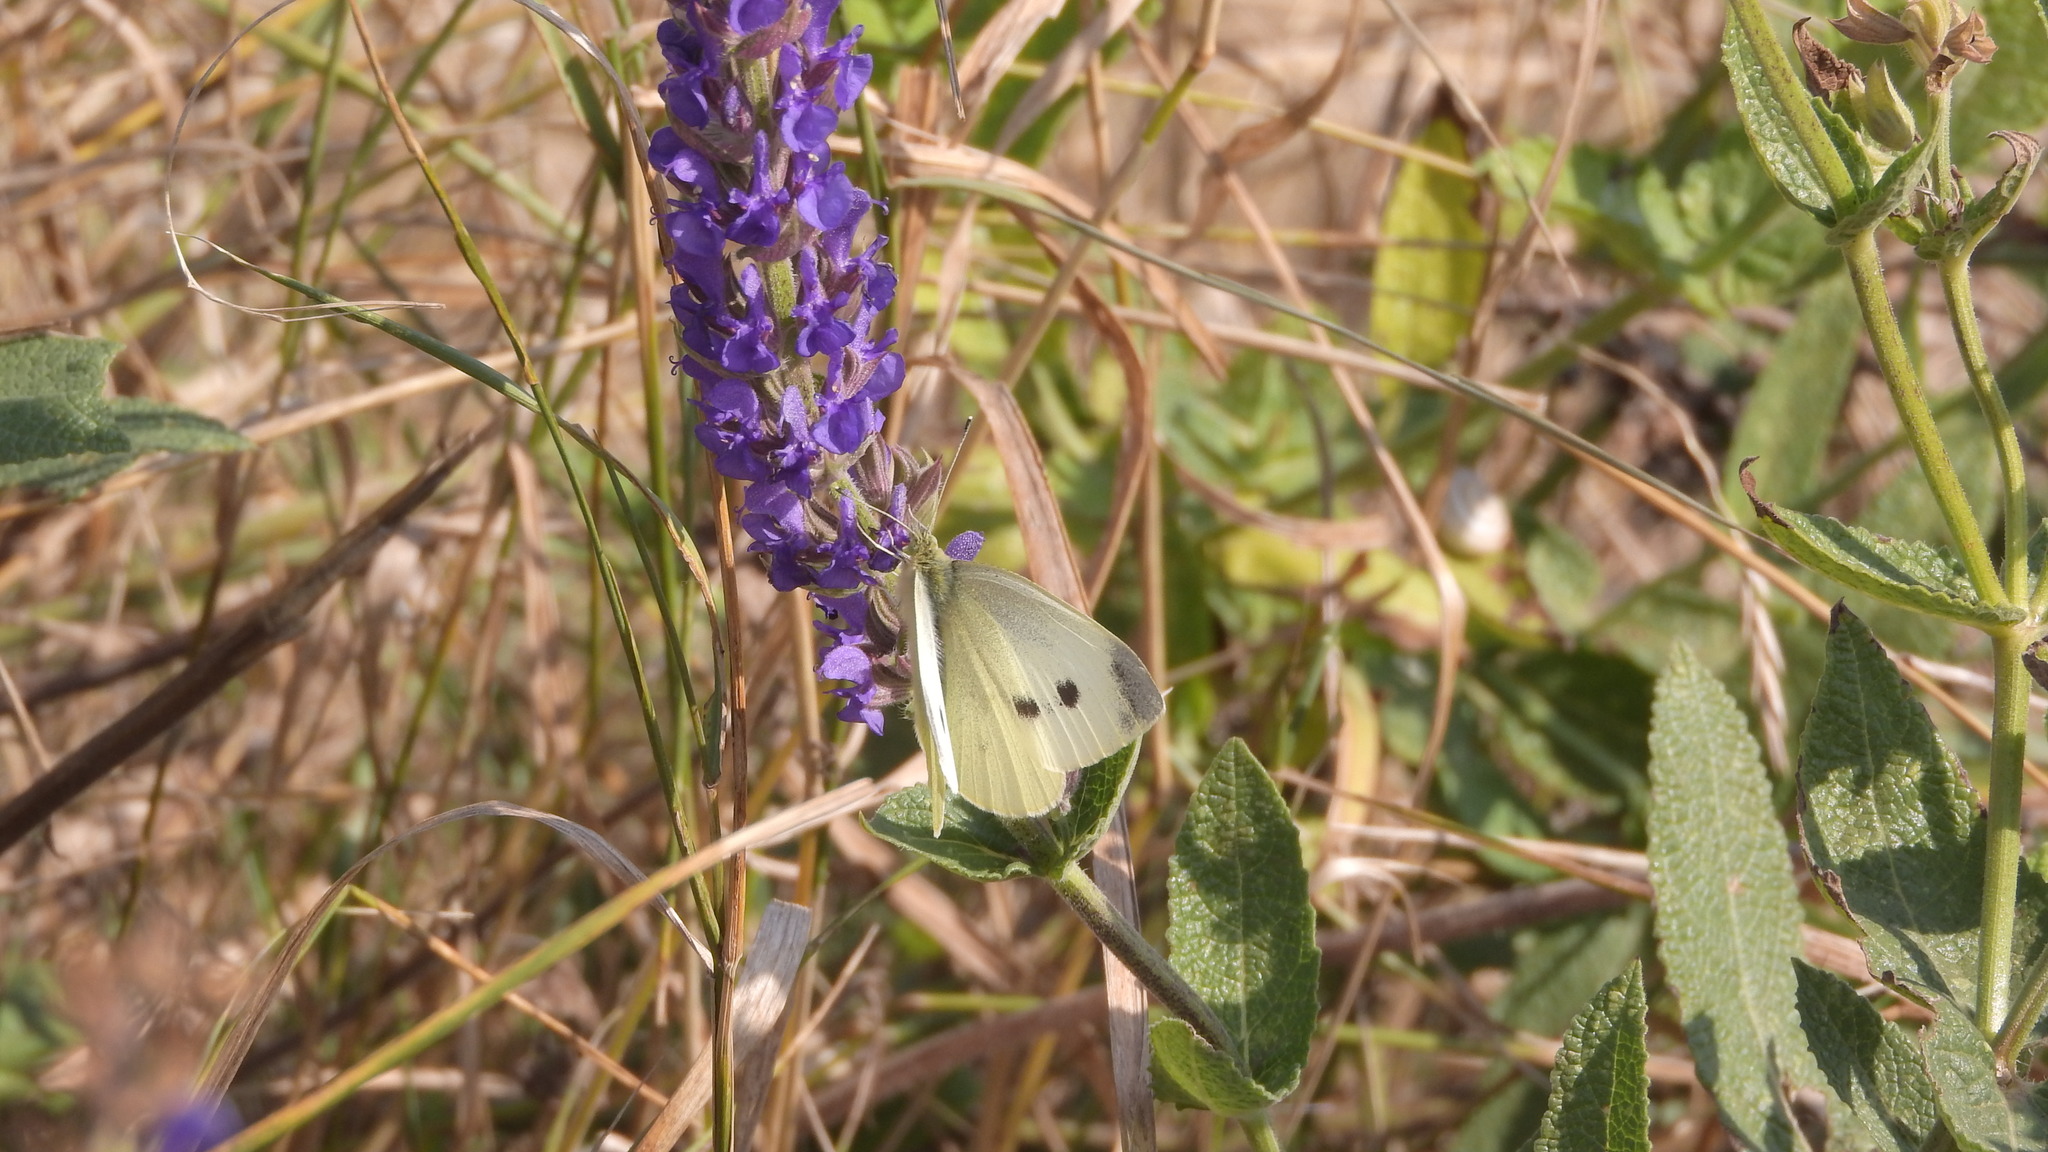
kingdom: Animalia
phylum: Arthropoda
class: Insecta
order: Lepidoptera
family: Pieridae
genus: Pieris
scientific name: Pieris rapae
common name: Small white
